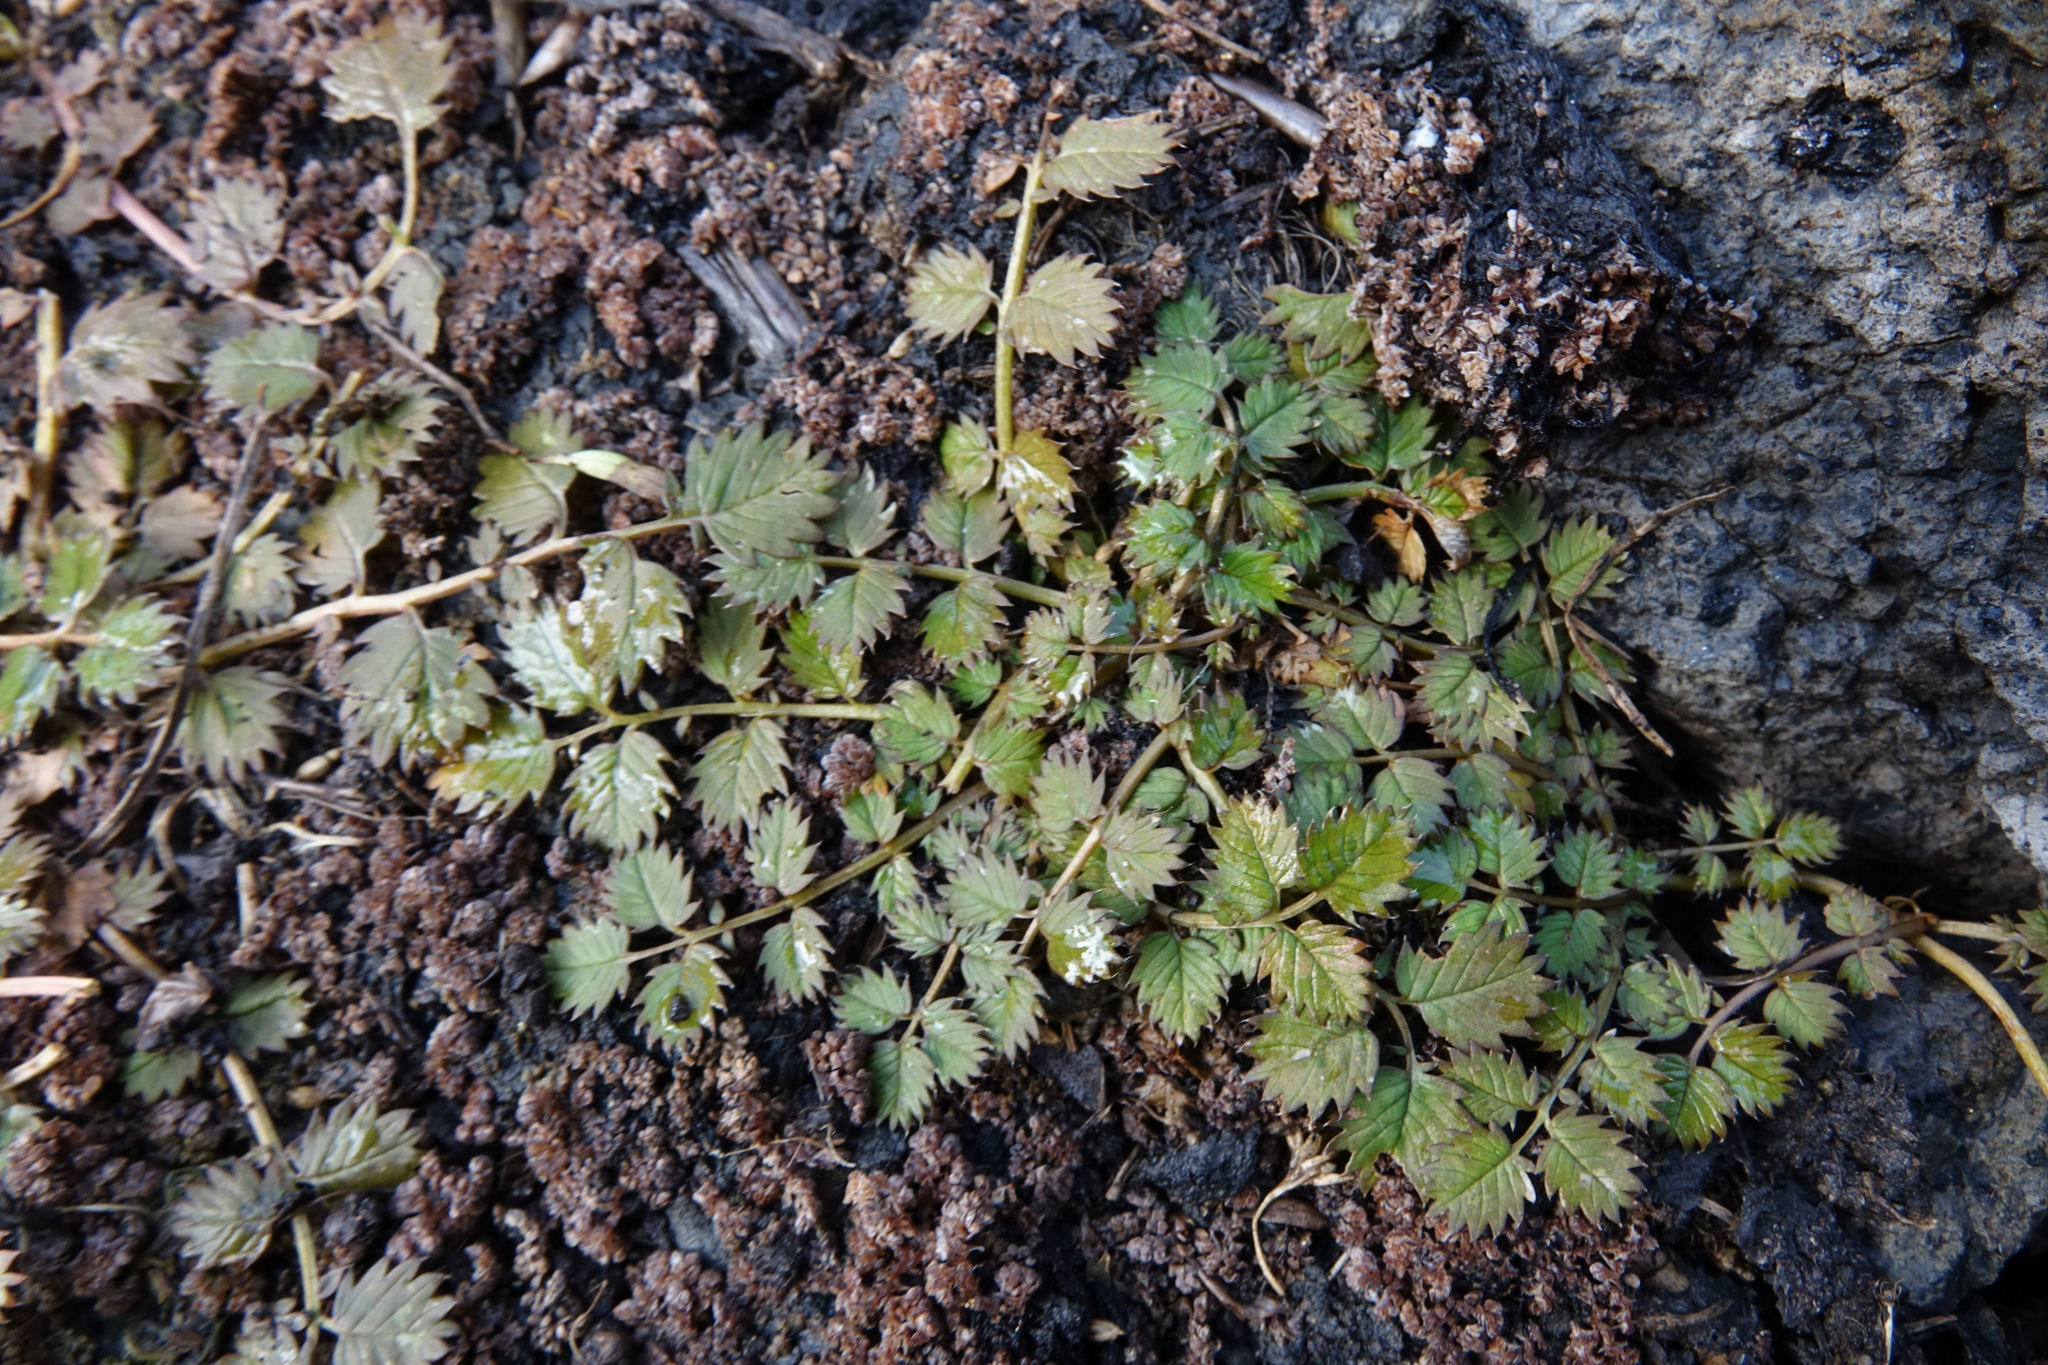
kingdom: Plantae
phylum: Tracheophyta
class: Magnoliopsida
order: Rosales
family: Rosaceae
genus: Argentina
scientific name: Argentina anserinoides
